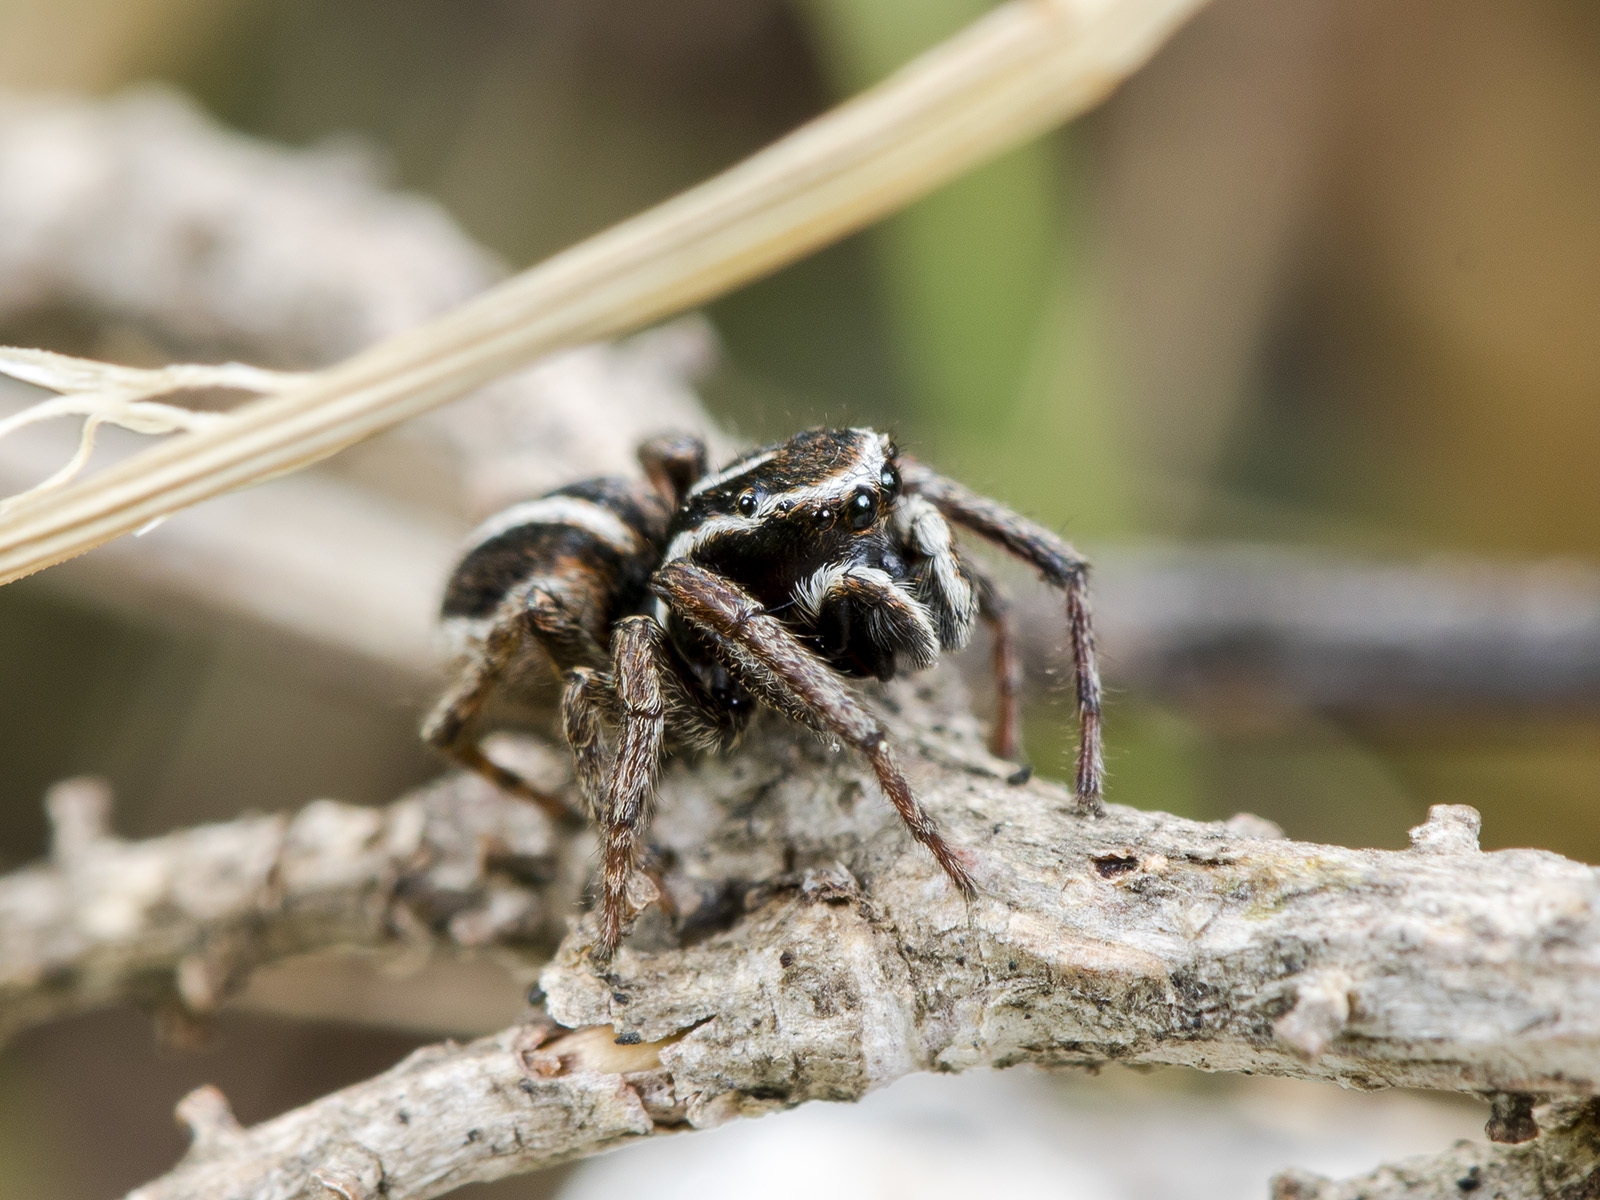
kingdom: Animalia
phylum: Arthropoda
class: Arachnida
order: Araneae
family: Salticidae
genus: Attulus
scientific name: Attulus talgarensis
